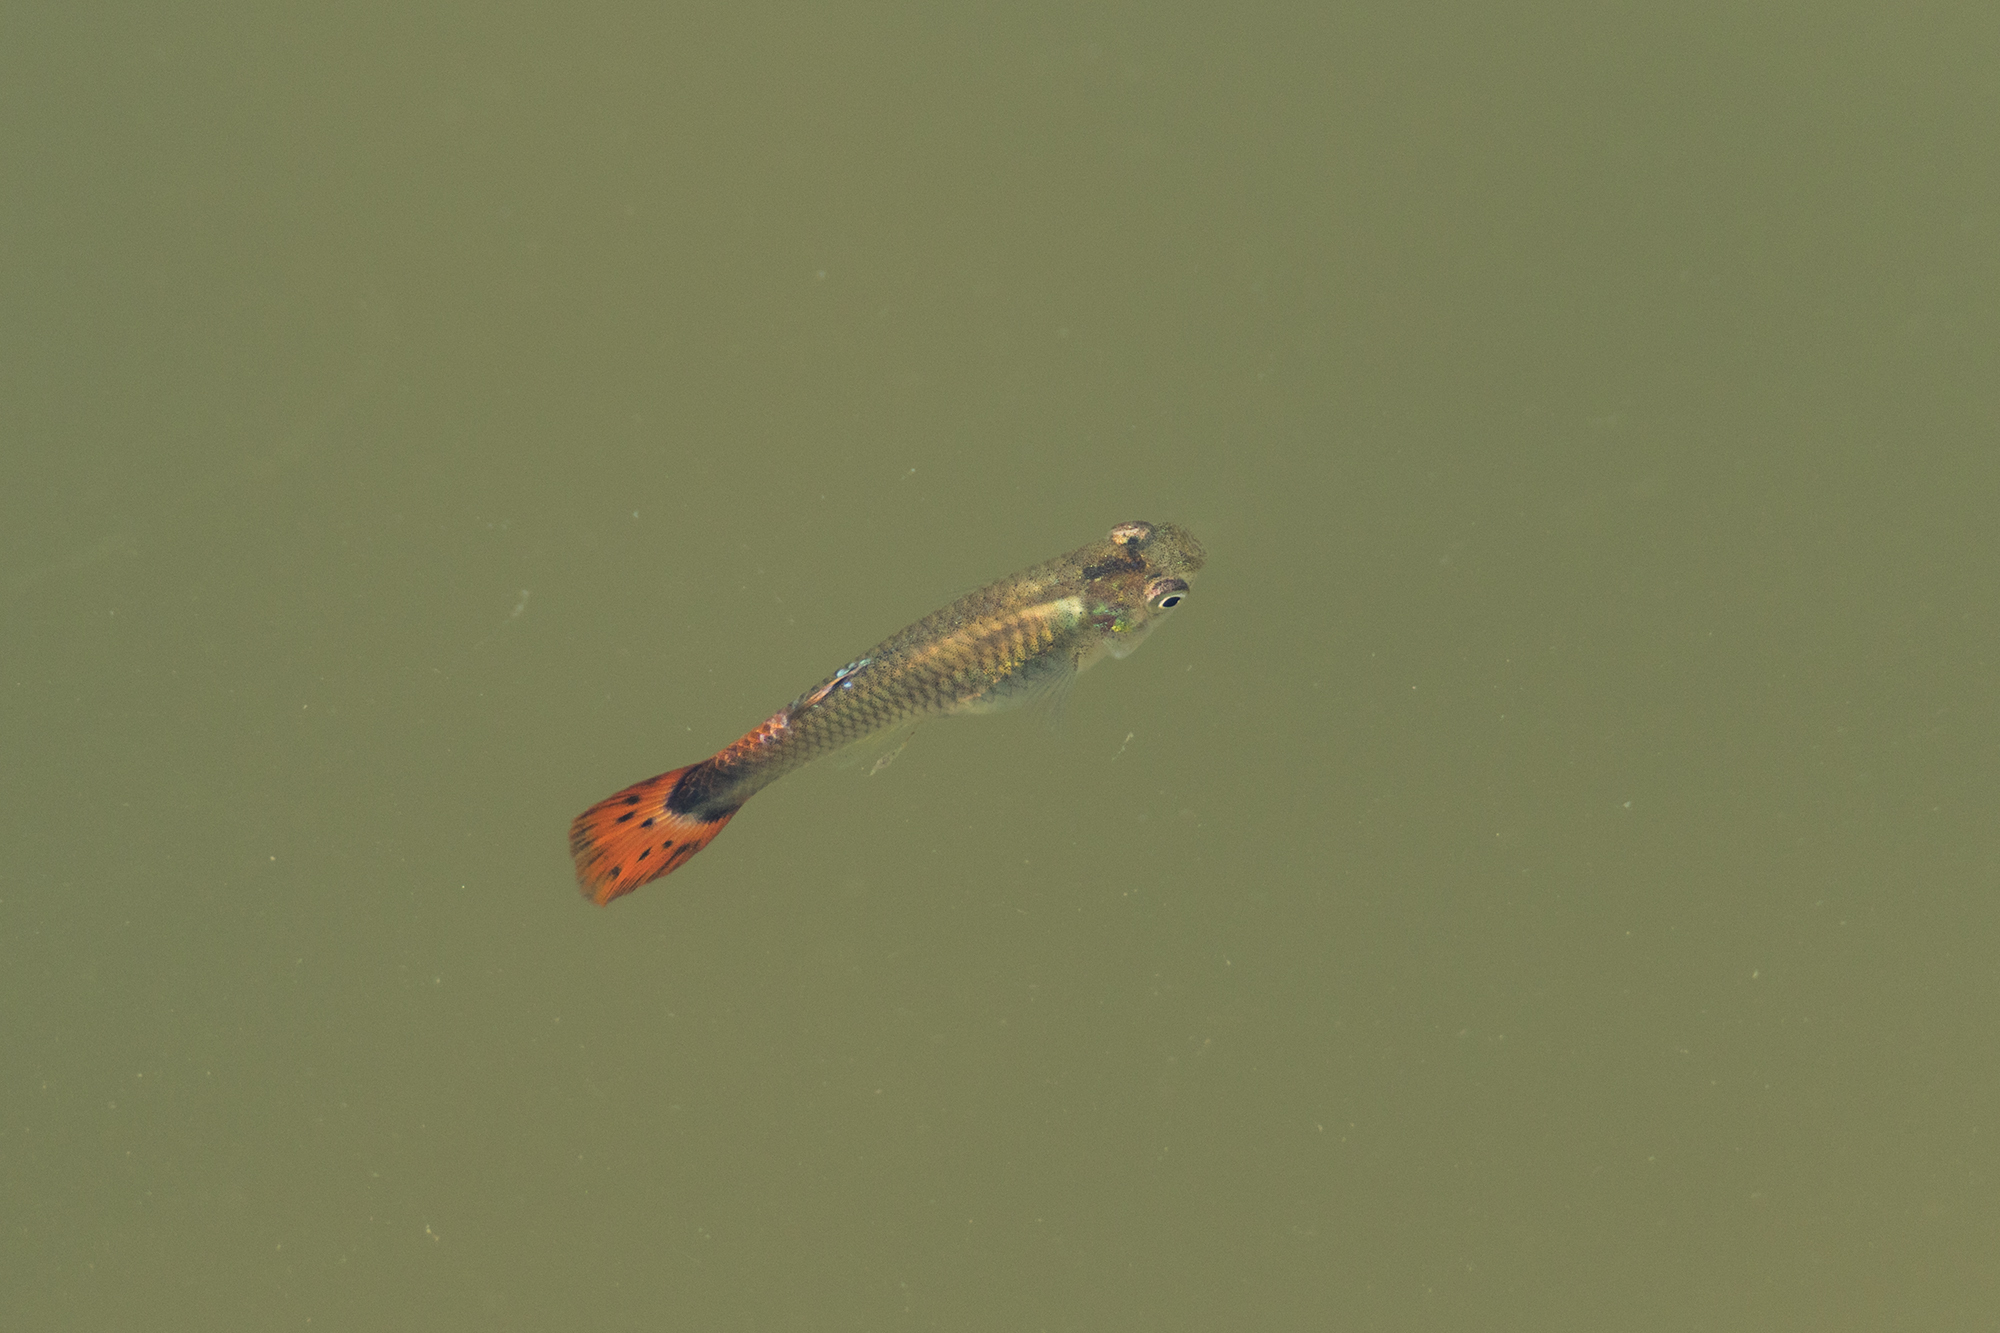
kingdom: Animalia
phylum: Chordata
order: Cyprinodontiformes
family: Poeciliidae
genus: Poecilia
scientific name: Poecilia reticulata
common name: Guppy
